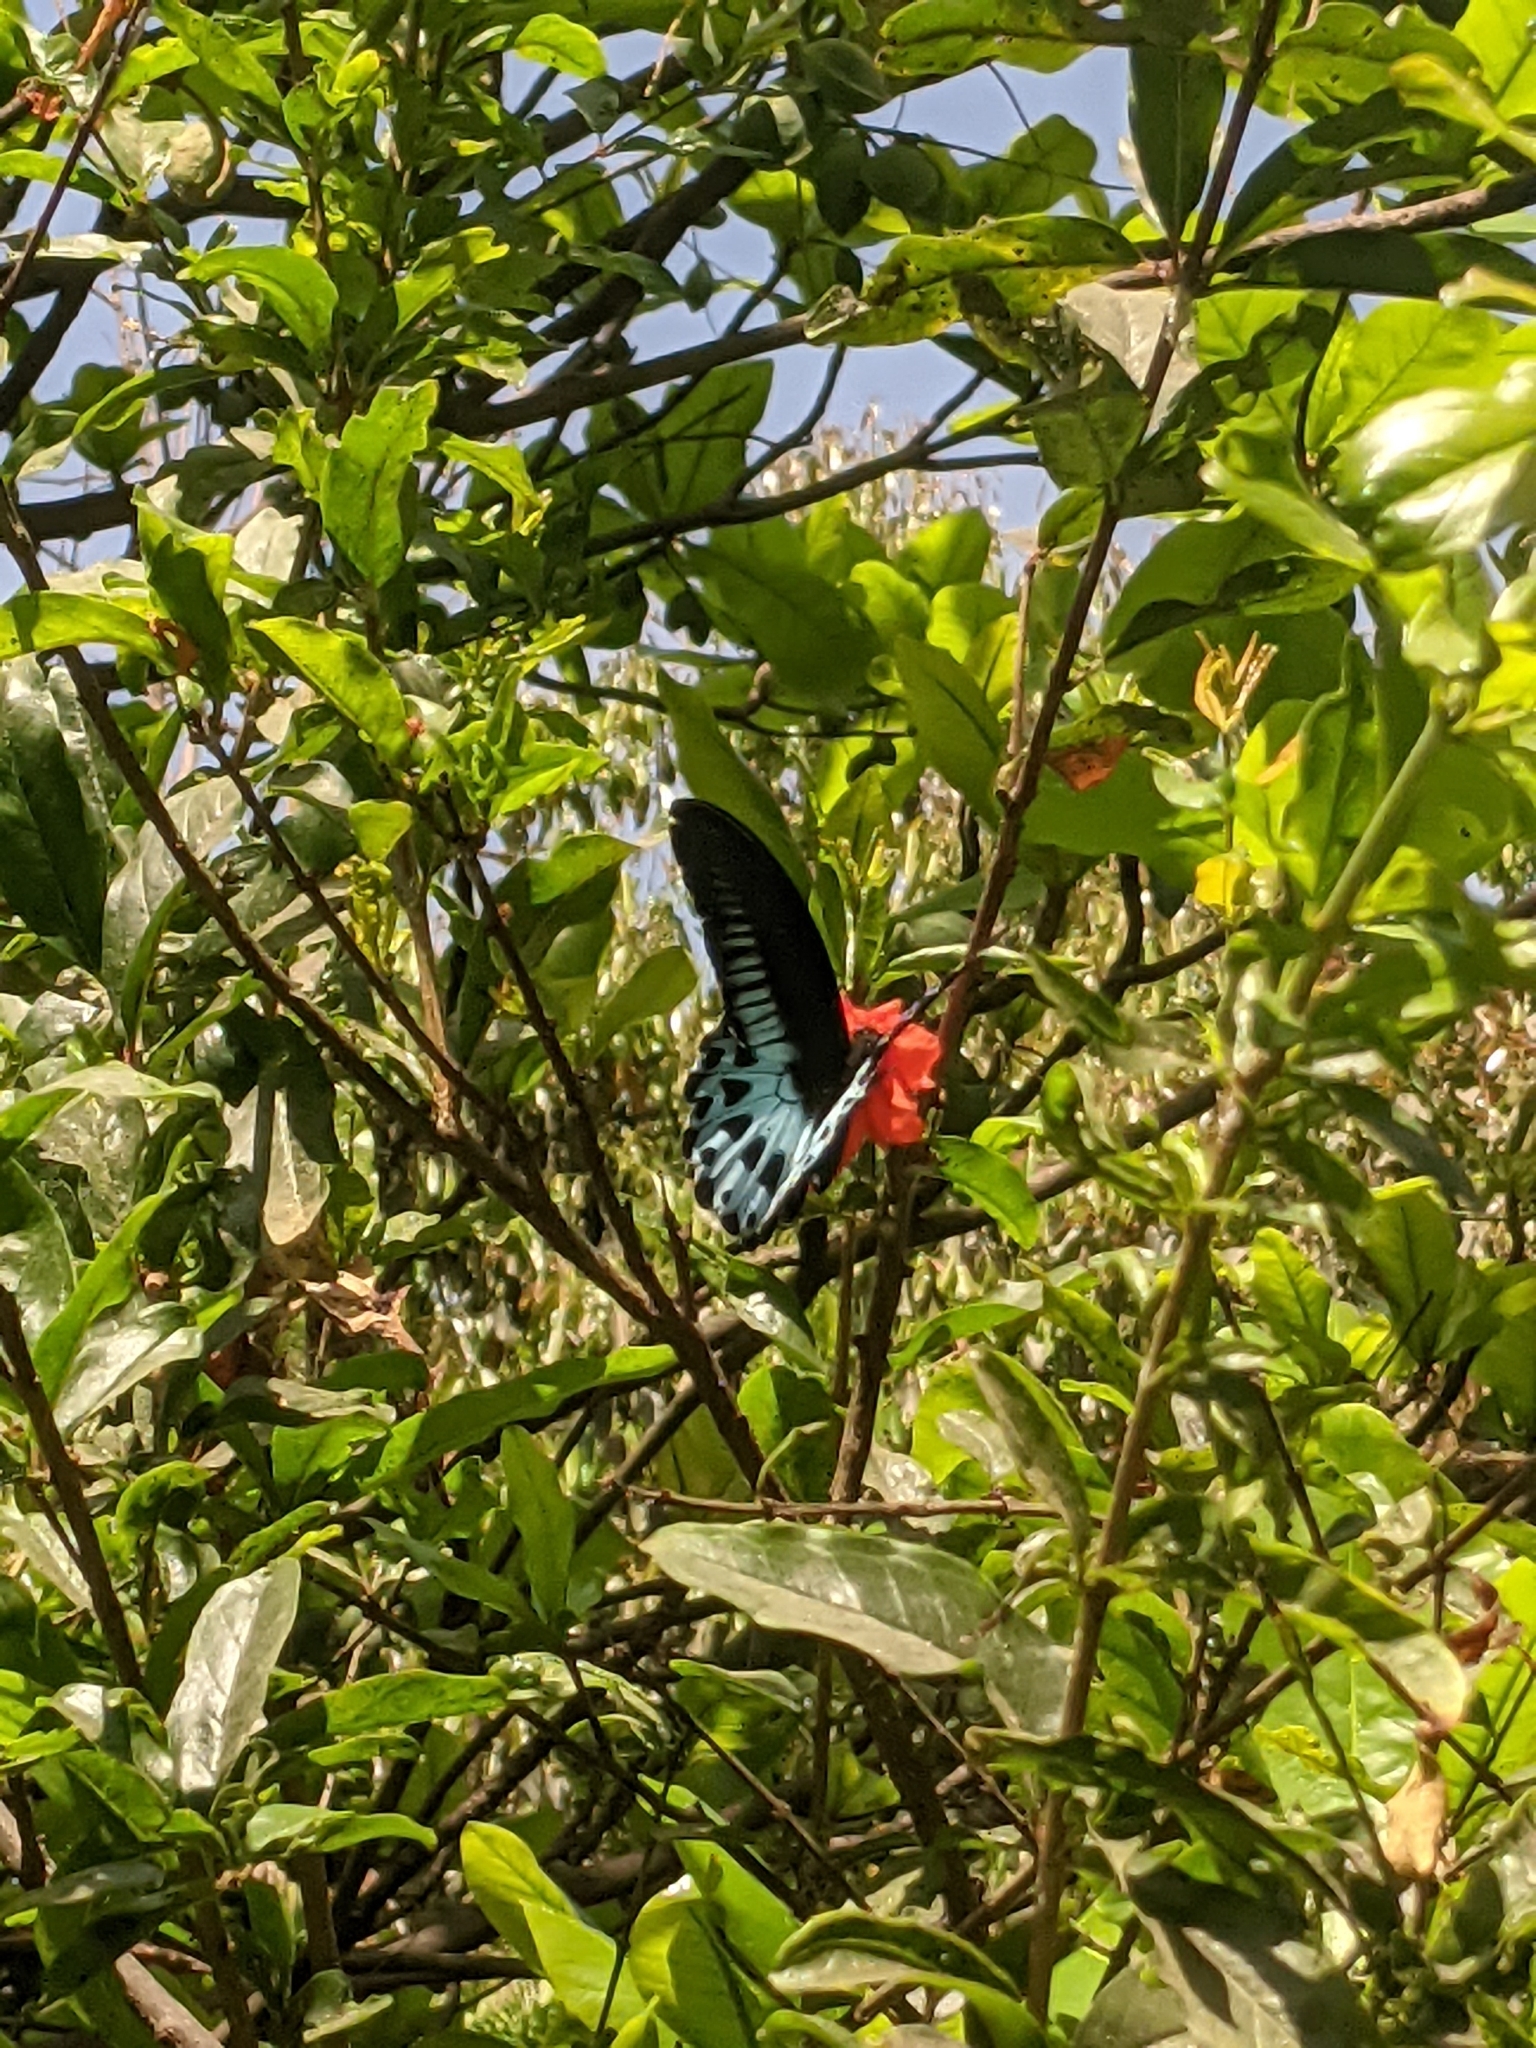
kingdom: Animalia
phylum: Arthropoda
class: Insecta
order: Lepidoptera
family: Papilionidae
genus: Papilio
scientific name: Papilio memnon
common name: Great mormon
